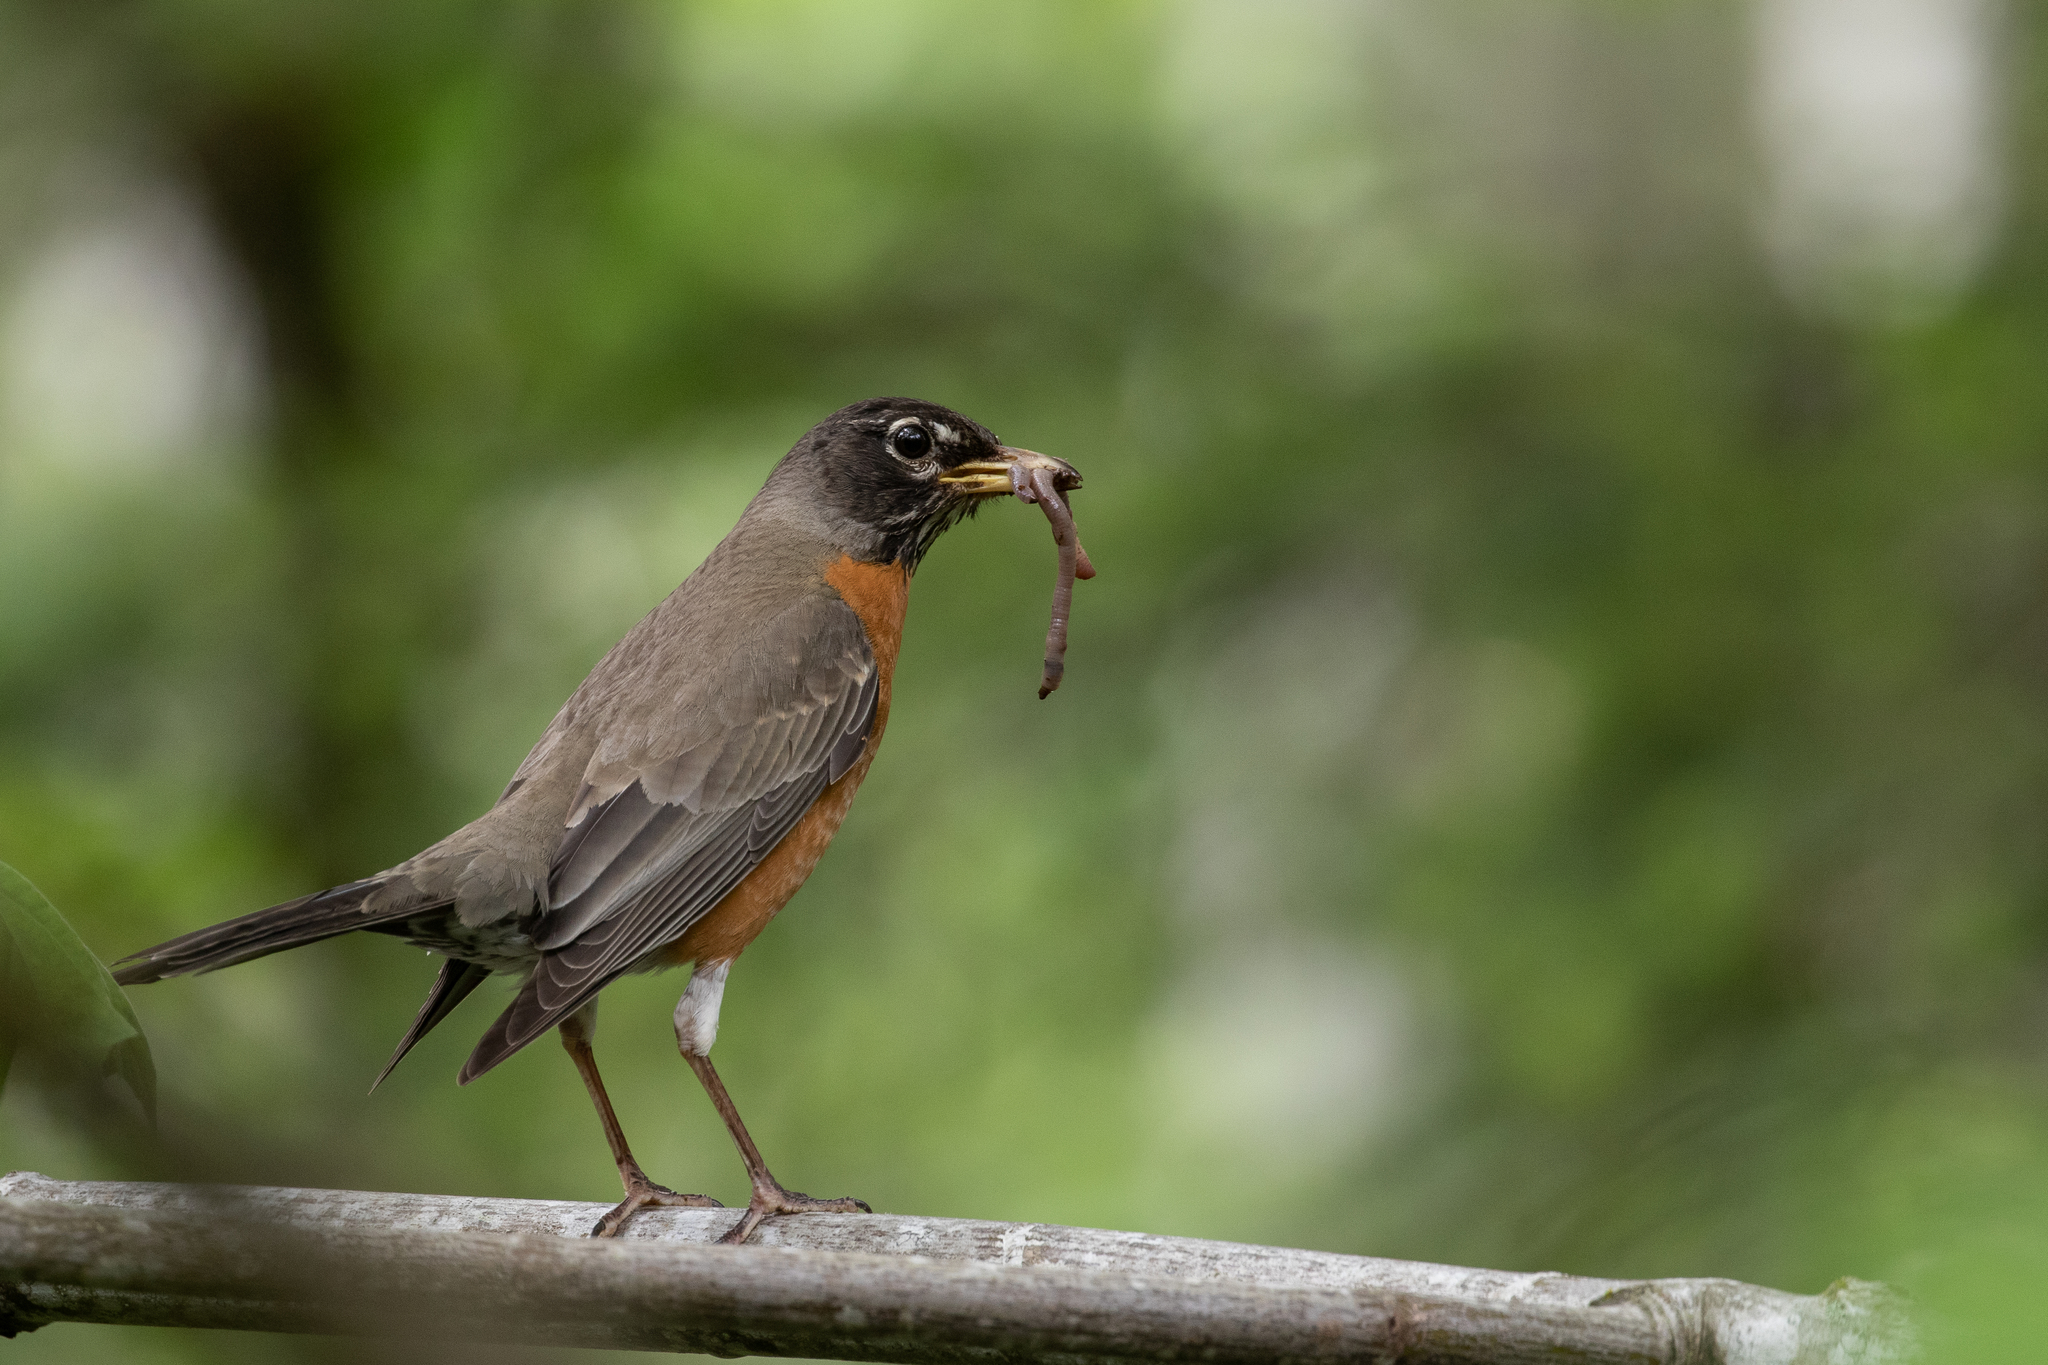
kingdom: Animalia
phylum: Chordata
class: Aves
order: Passeriformes
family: Turdidae
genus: Turdus
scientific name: Turdus migratorius
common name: American robin
